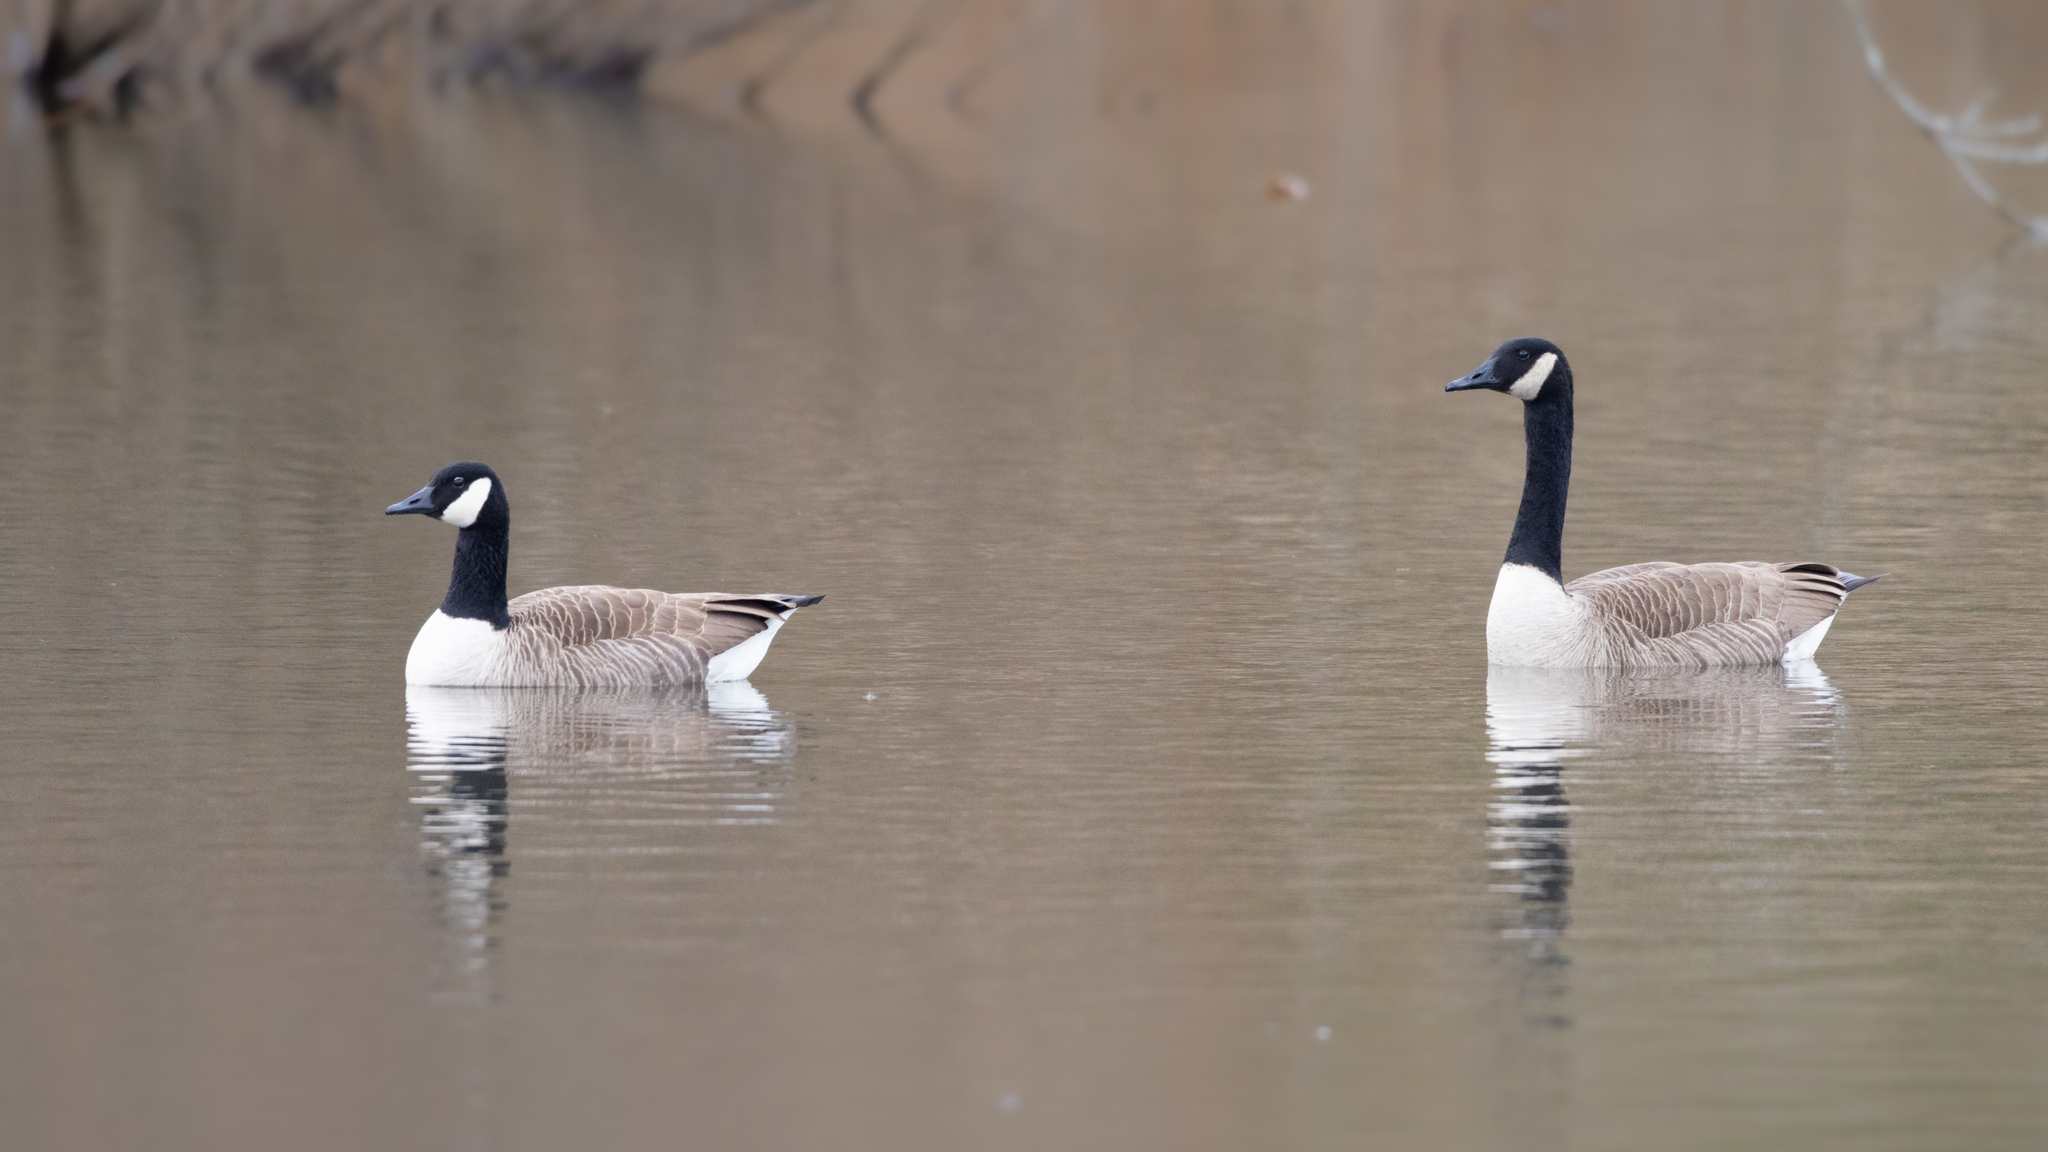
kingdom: Animalia
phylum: Chordata
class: Aves
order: Anseriformes
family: Anatidae
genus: Branta
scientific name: Branta canadensis
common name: Canada goose
